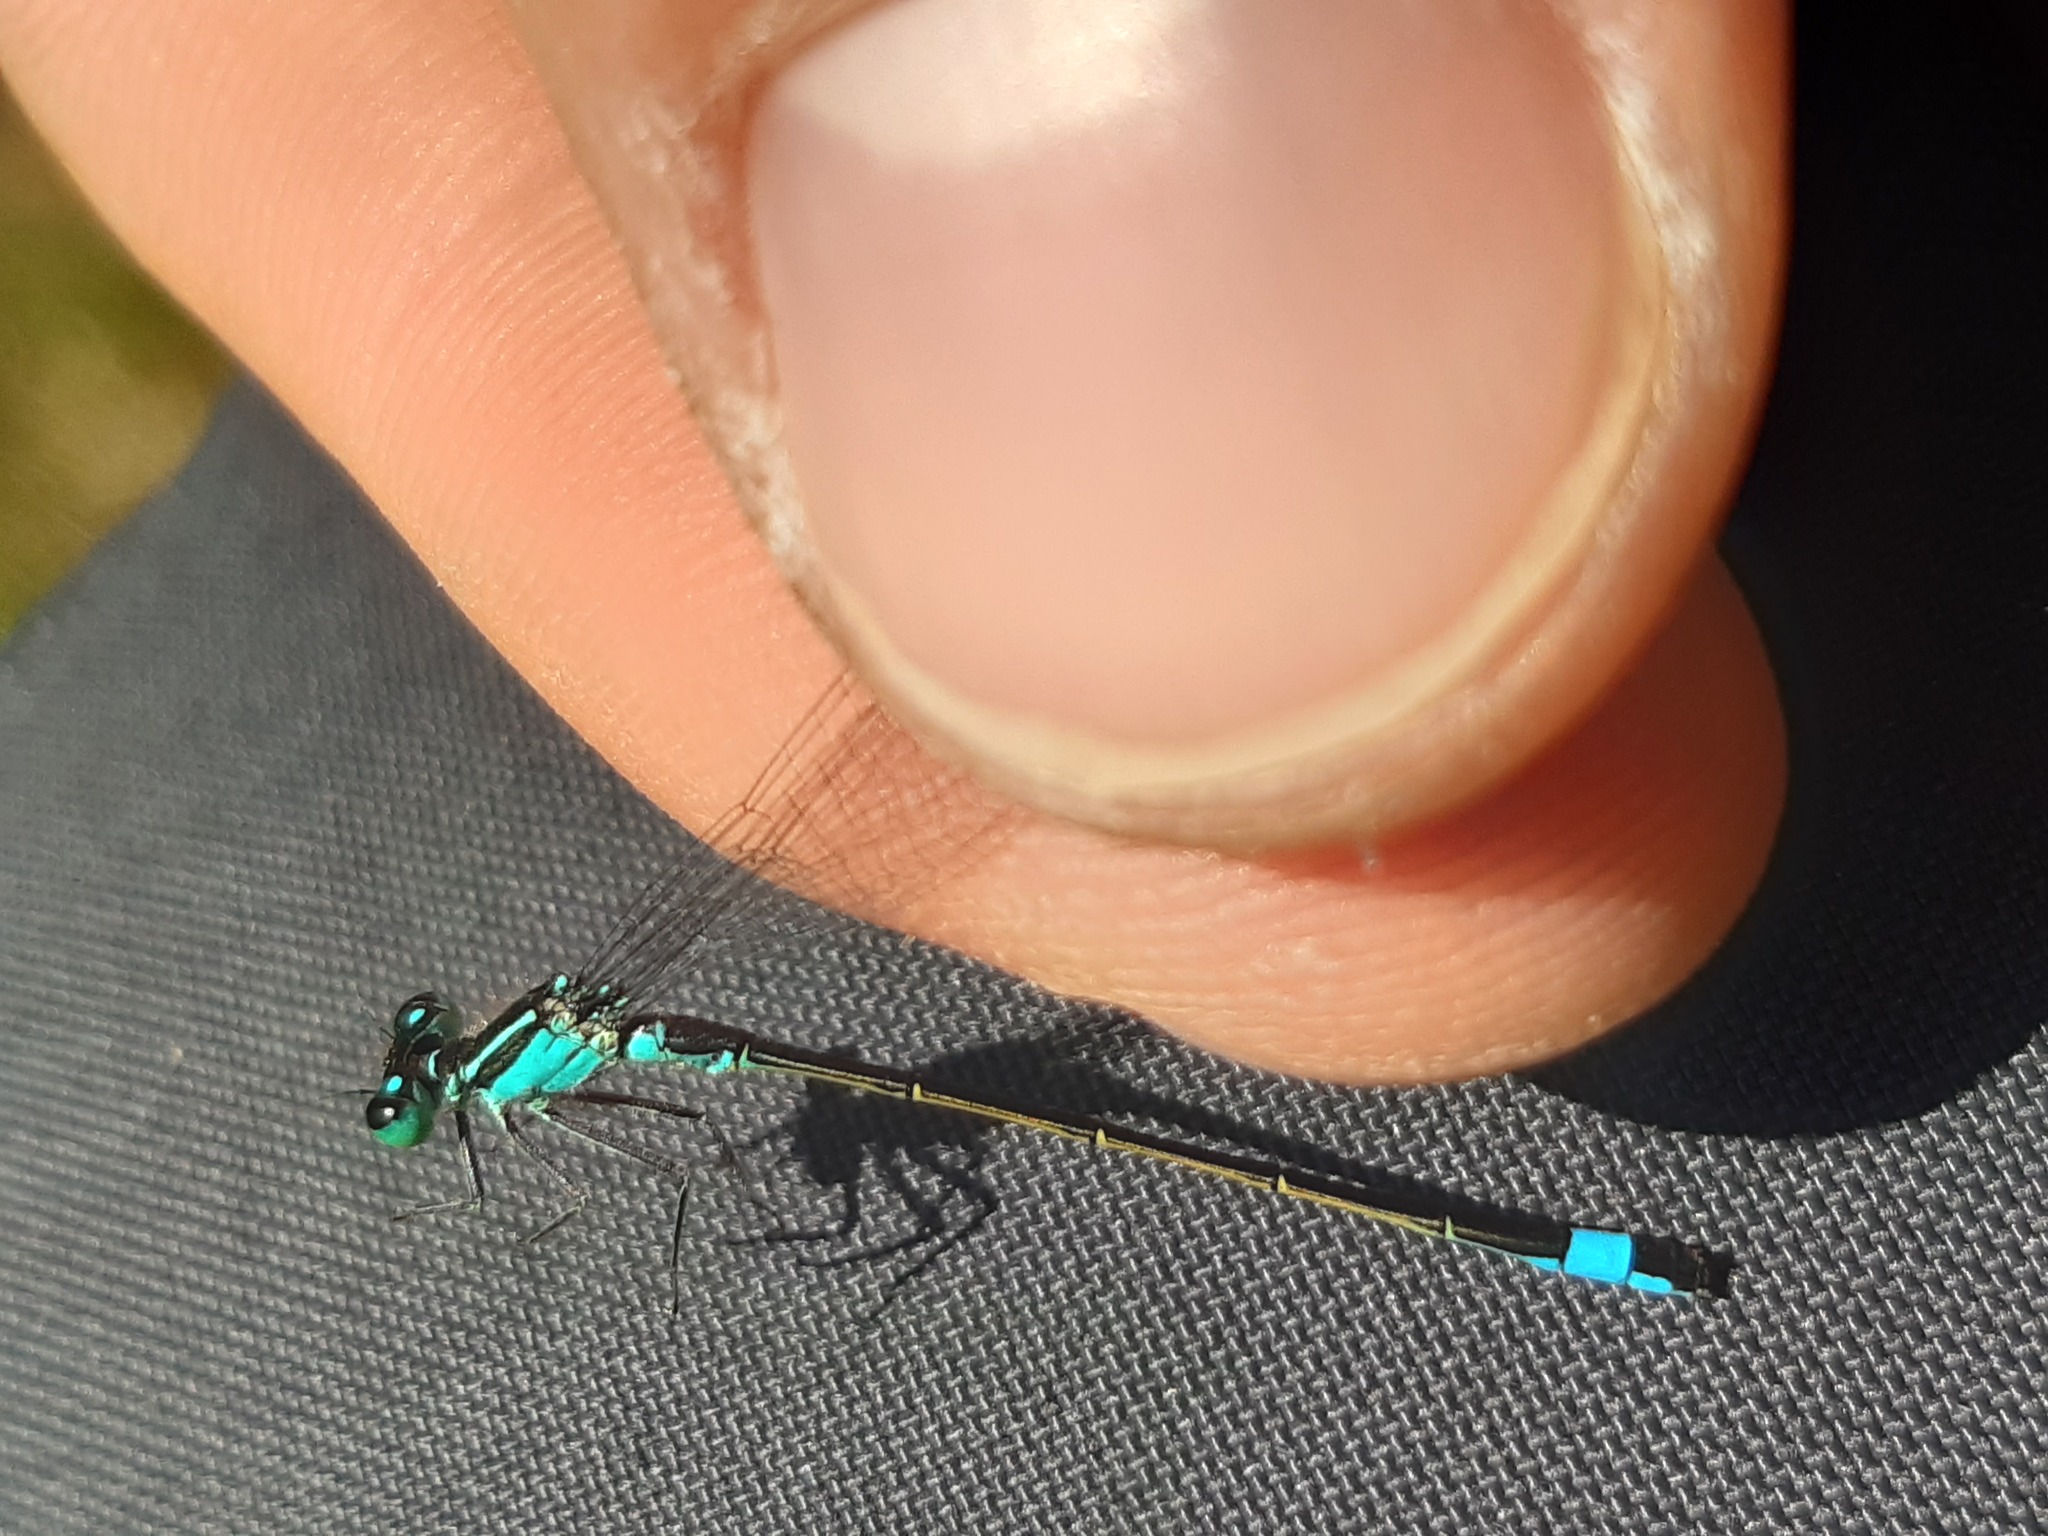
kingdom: Animalia
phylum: Arthropoda
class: Insecta
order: Odonata
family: Coenagrionidae
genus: Ischnura
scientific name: Ischnura elegans
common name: Blue-tailed damselfly
